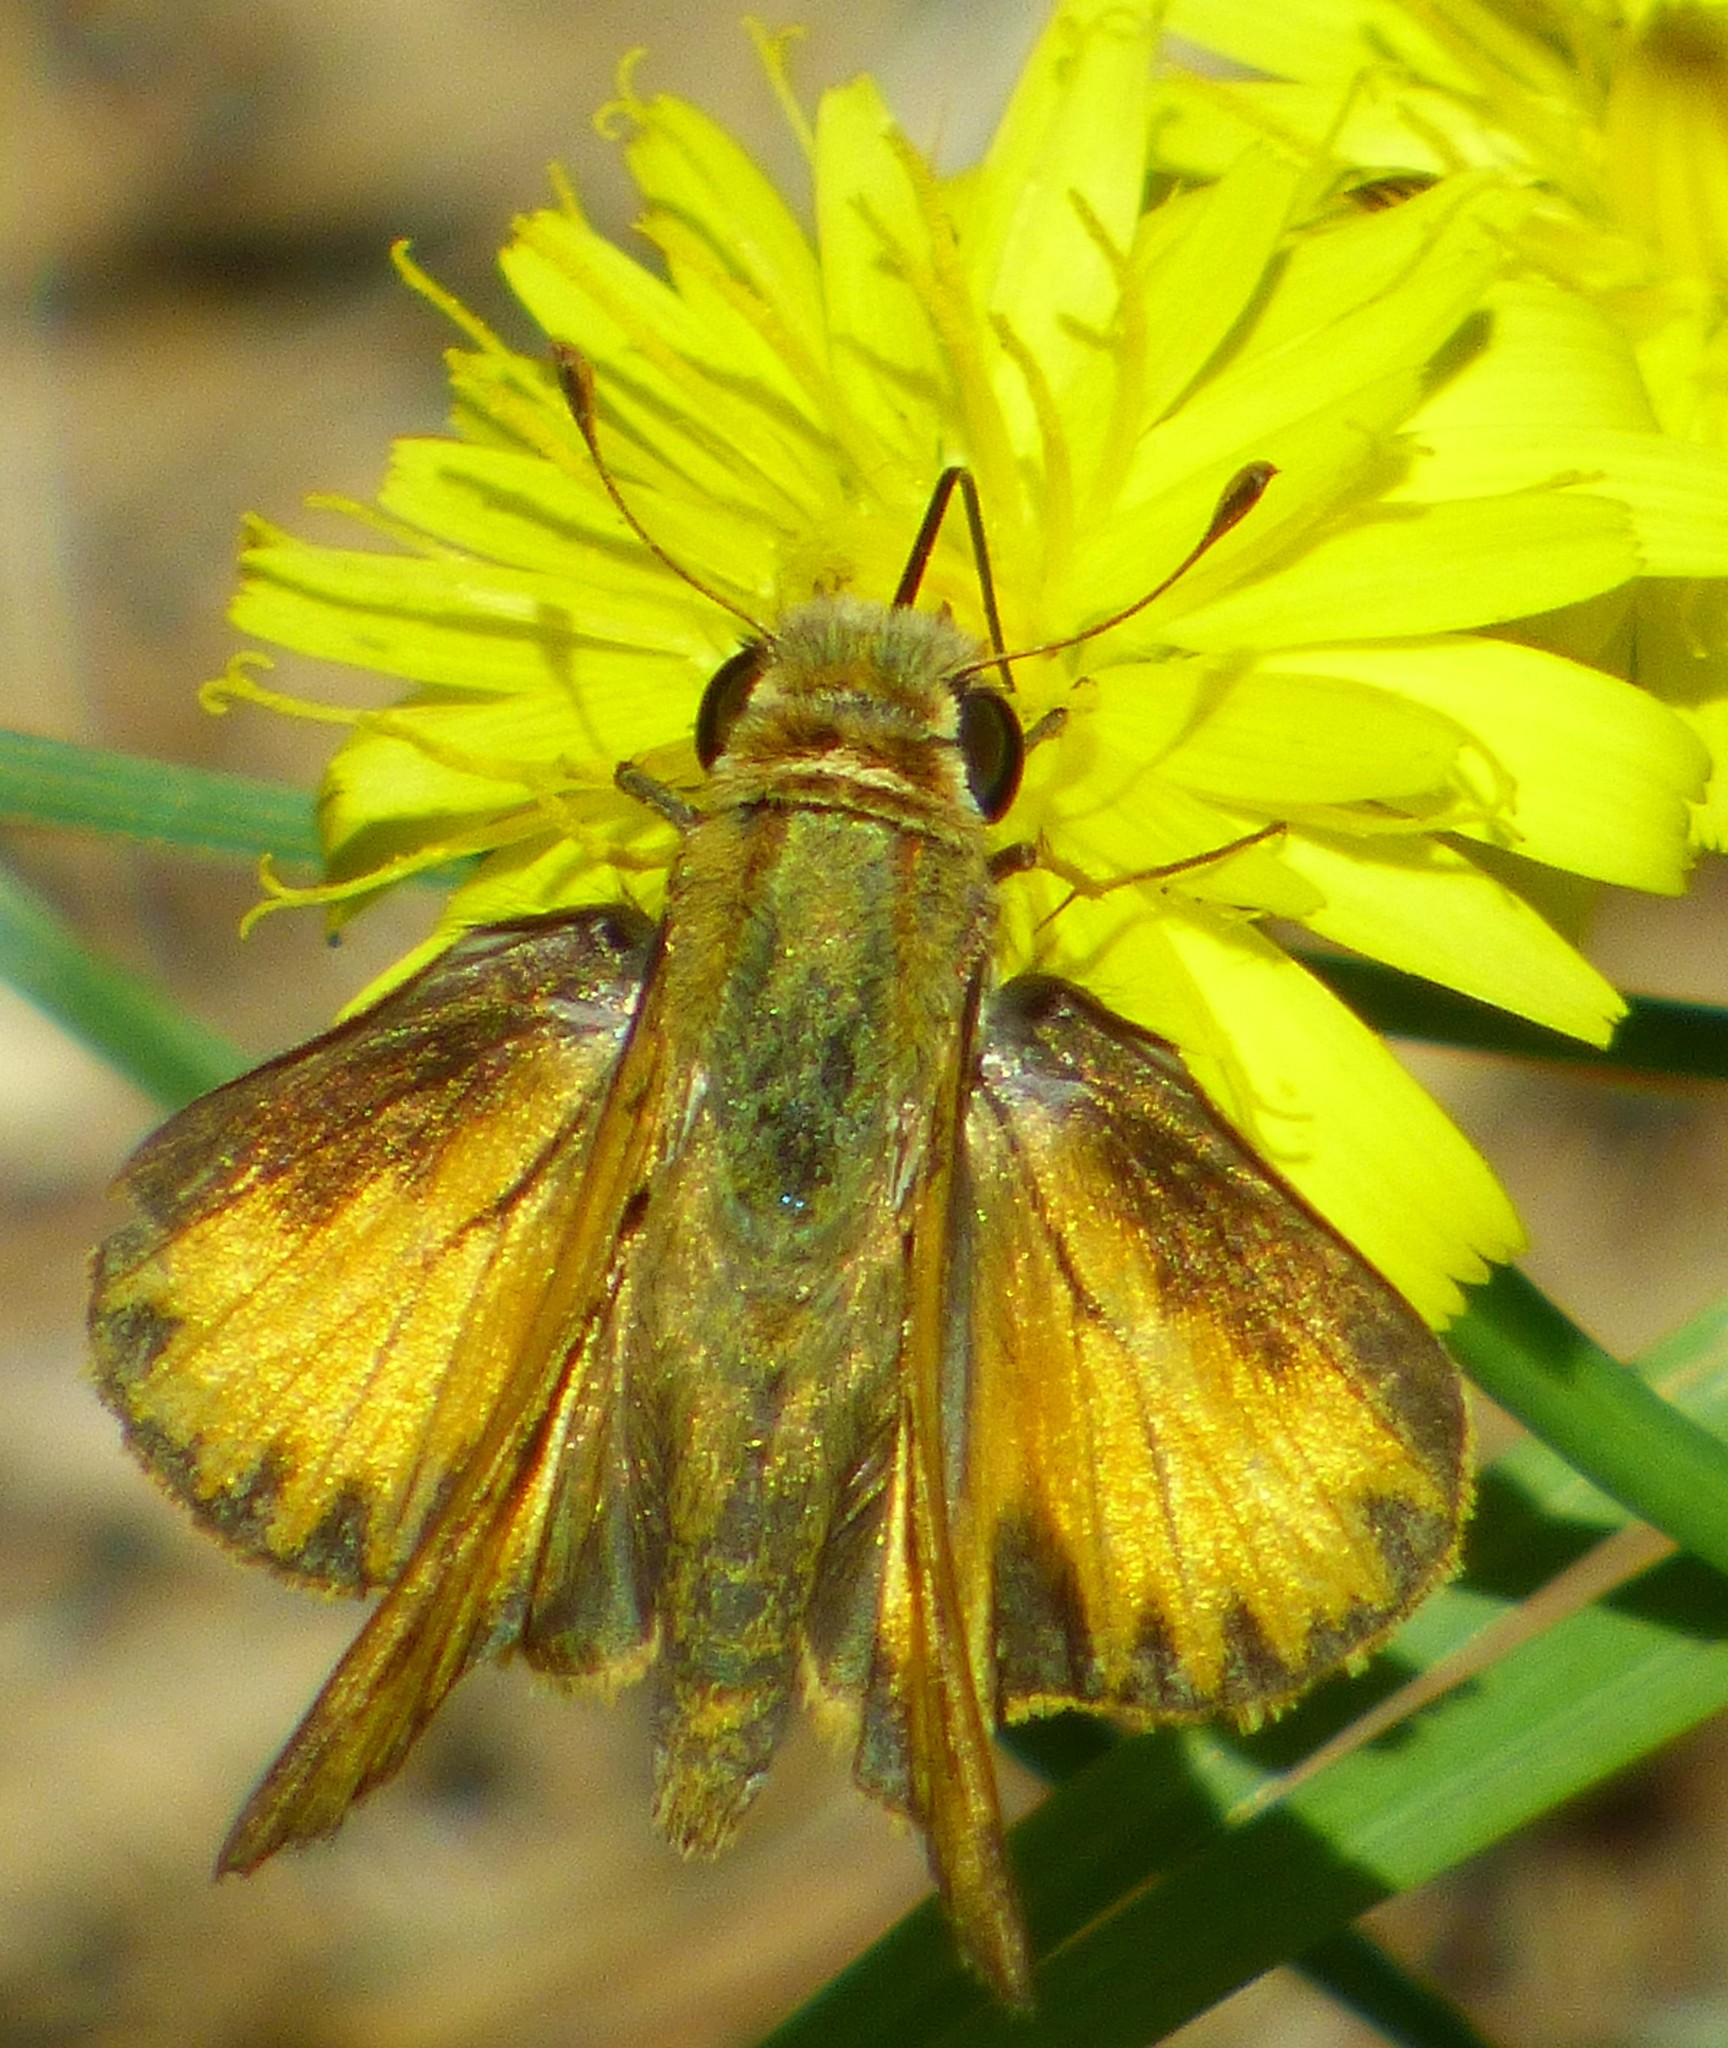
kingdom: Animalia
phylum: Arthropoda
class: Insecta
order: Lepidoptera
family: Hesperiidae
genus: Hylephila
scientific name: Hylephila phyleus
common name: Fiery skipper
